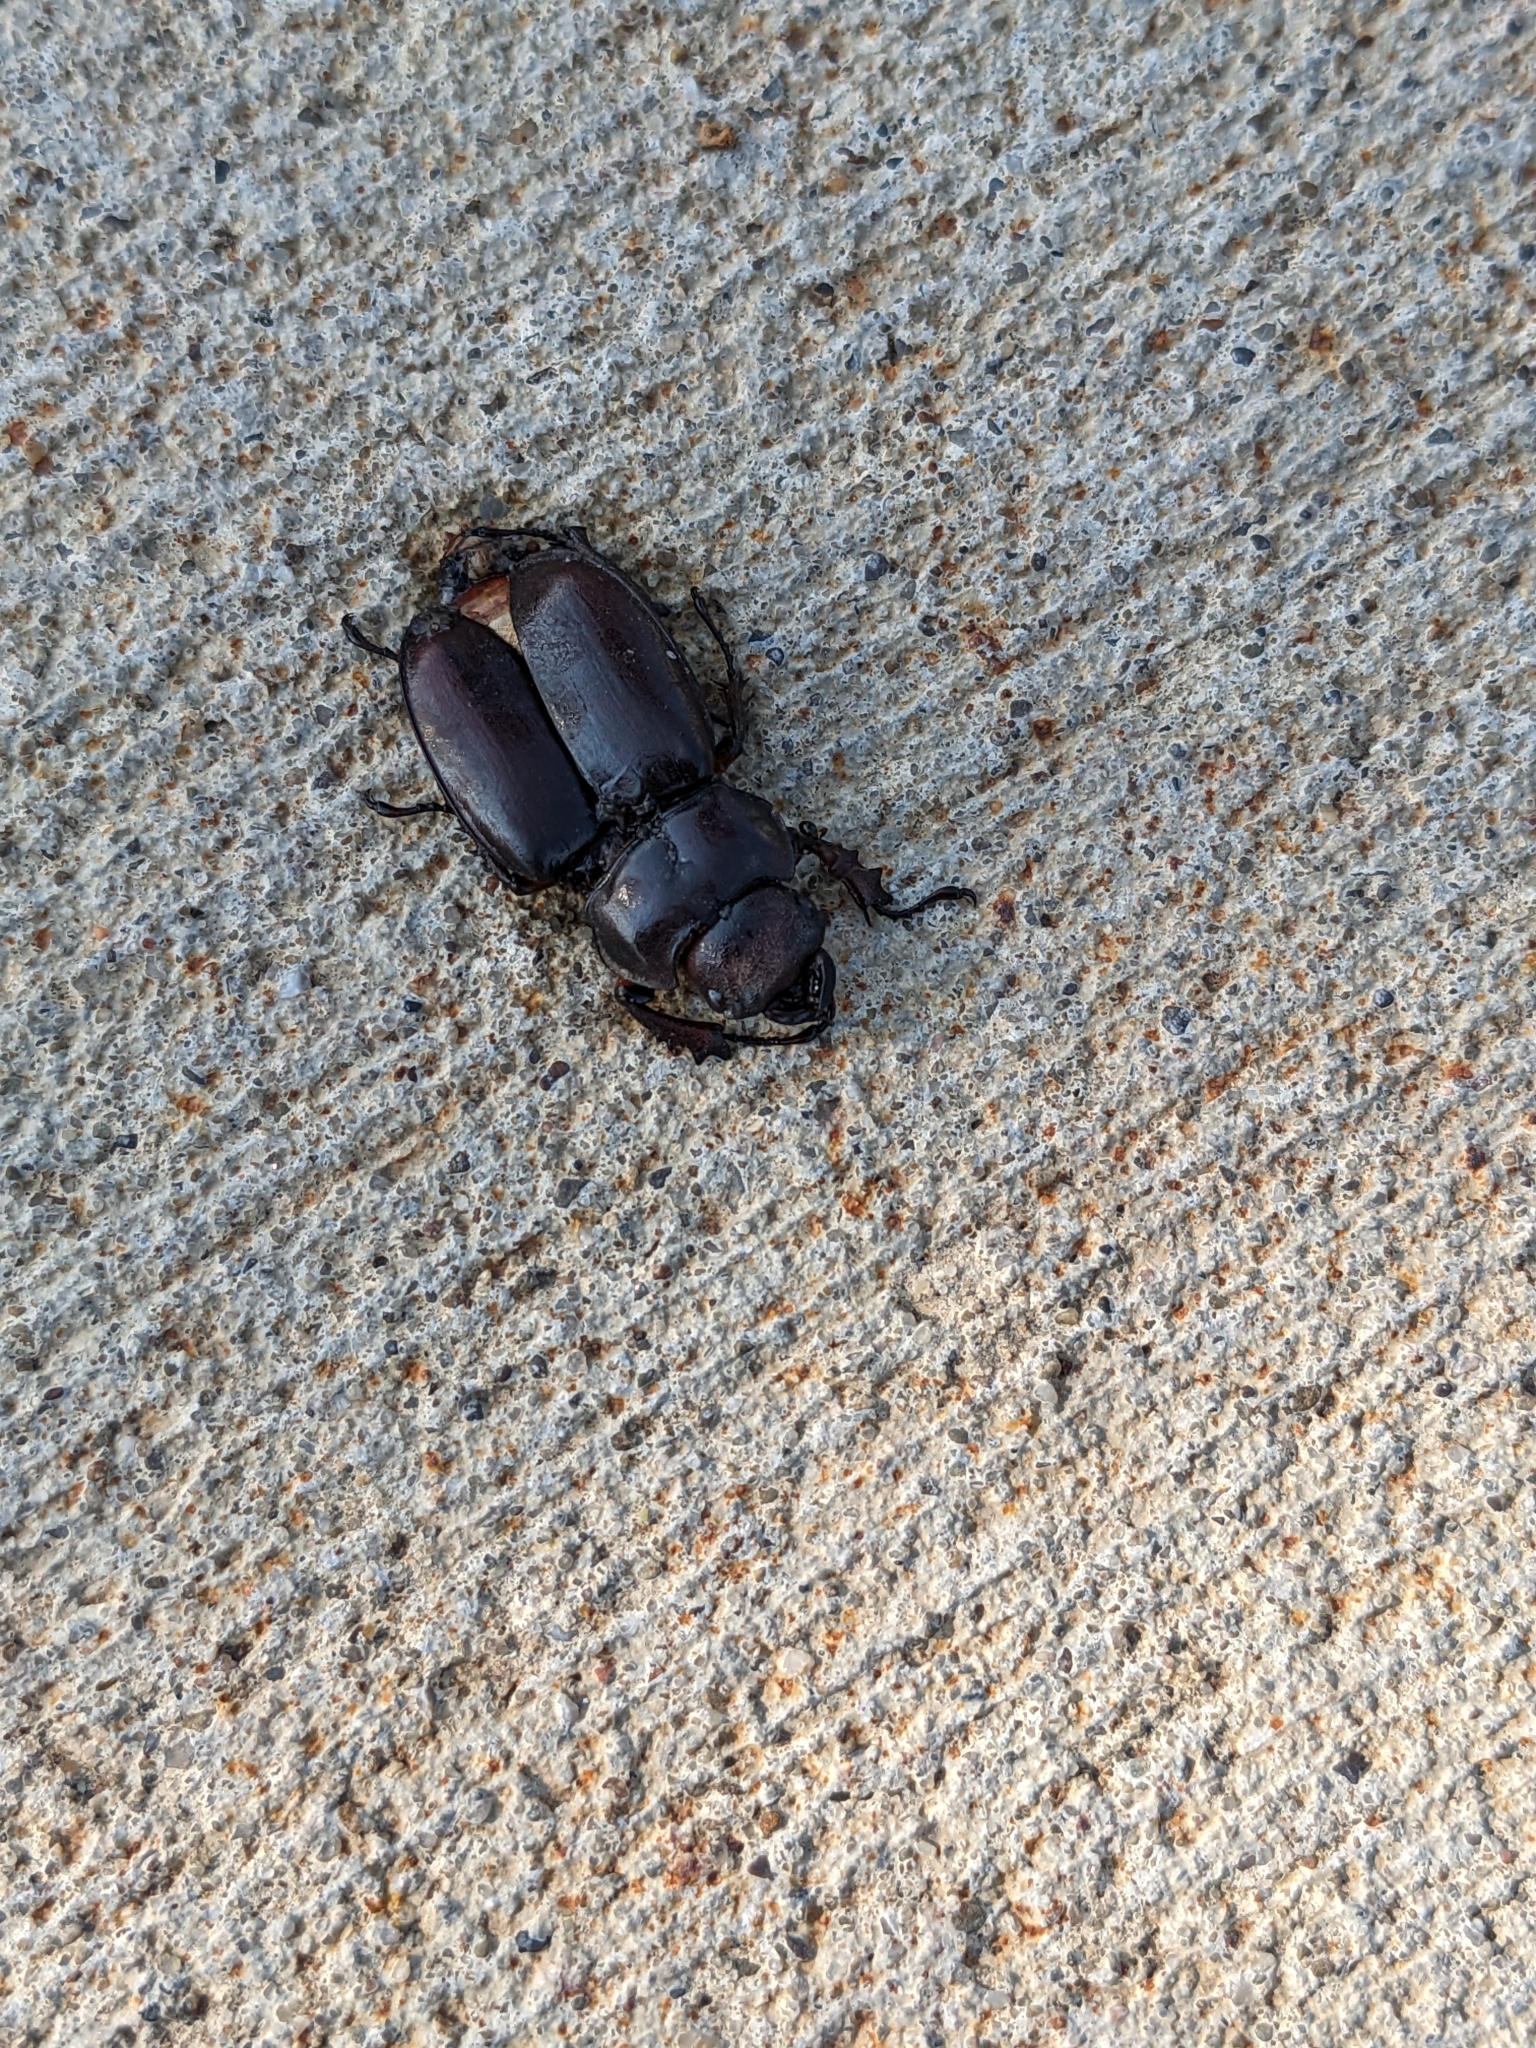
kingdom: Animalia
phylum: Arthropoda
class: Insecta
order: Coleoptera
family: Lucanidae
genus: Lucanus
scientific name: Lucanus capreolus
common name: Stag beetle
